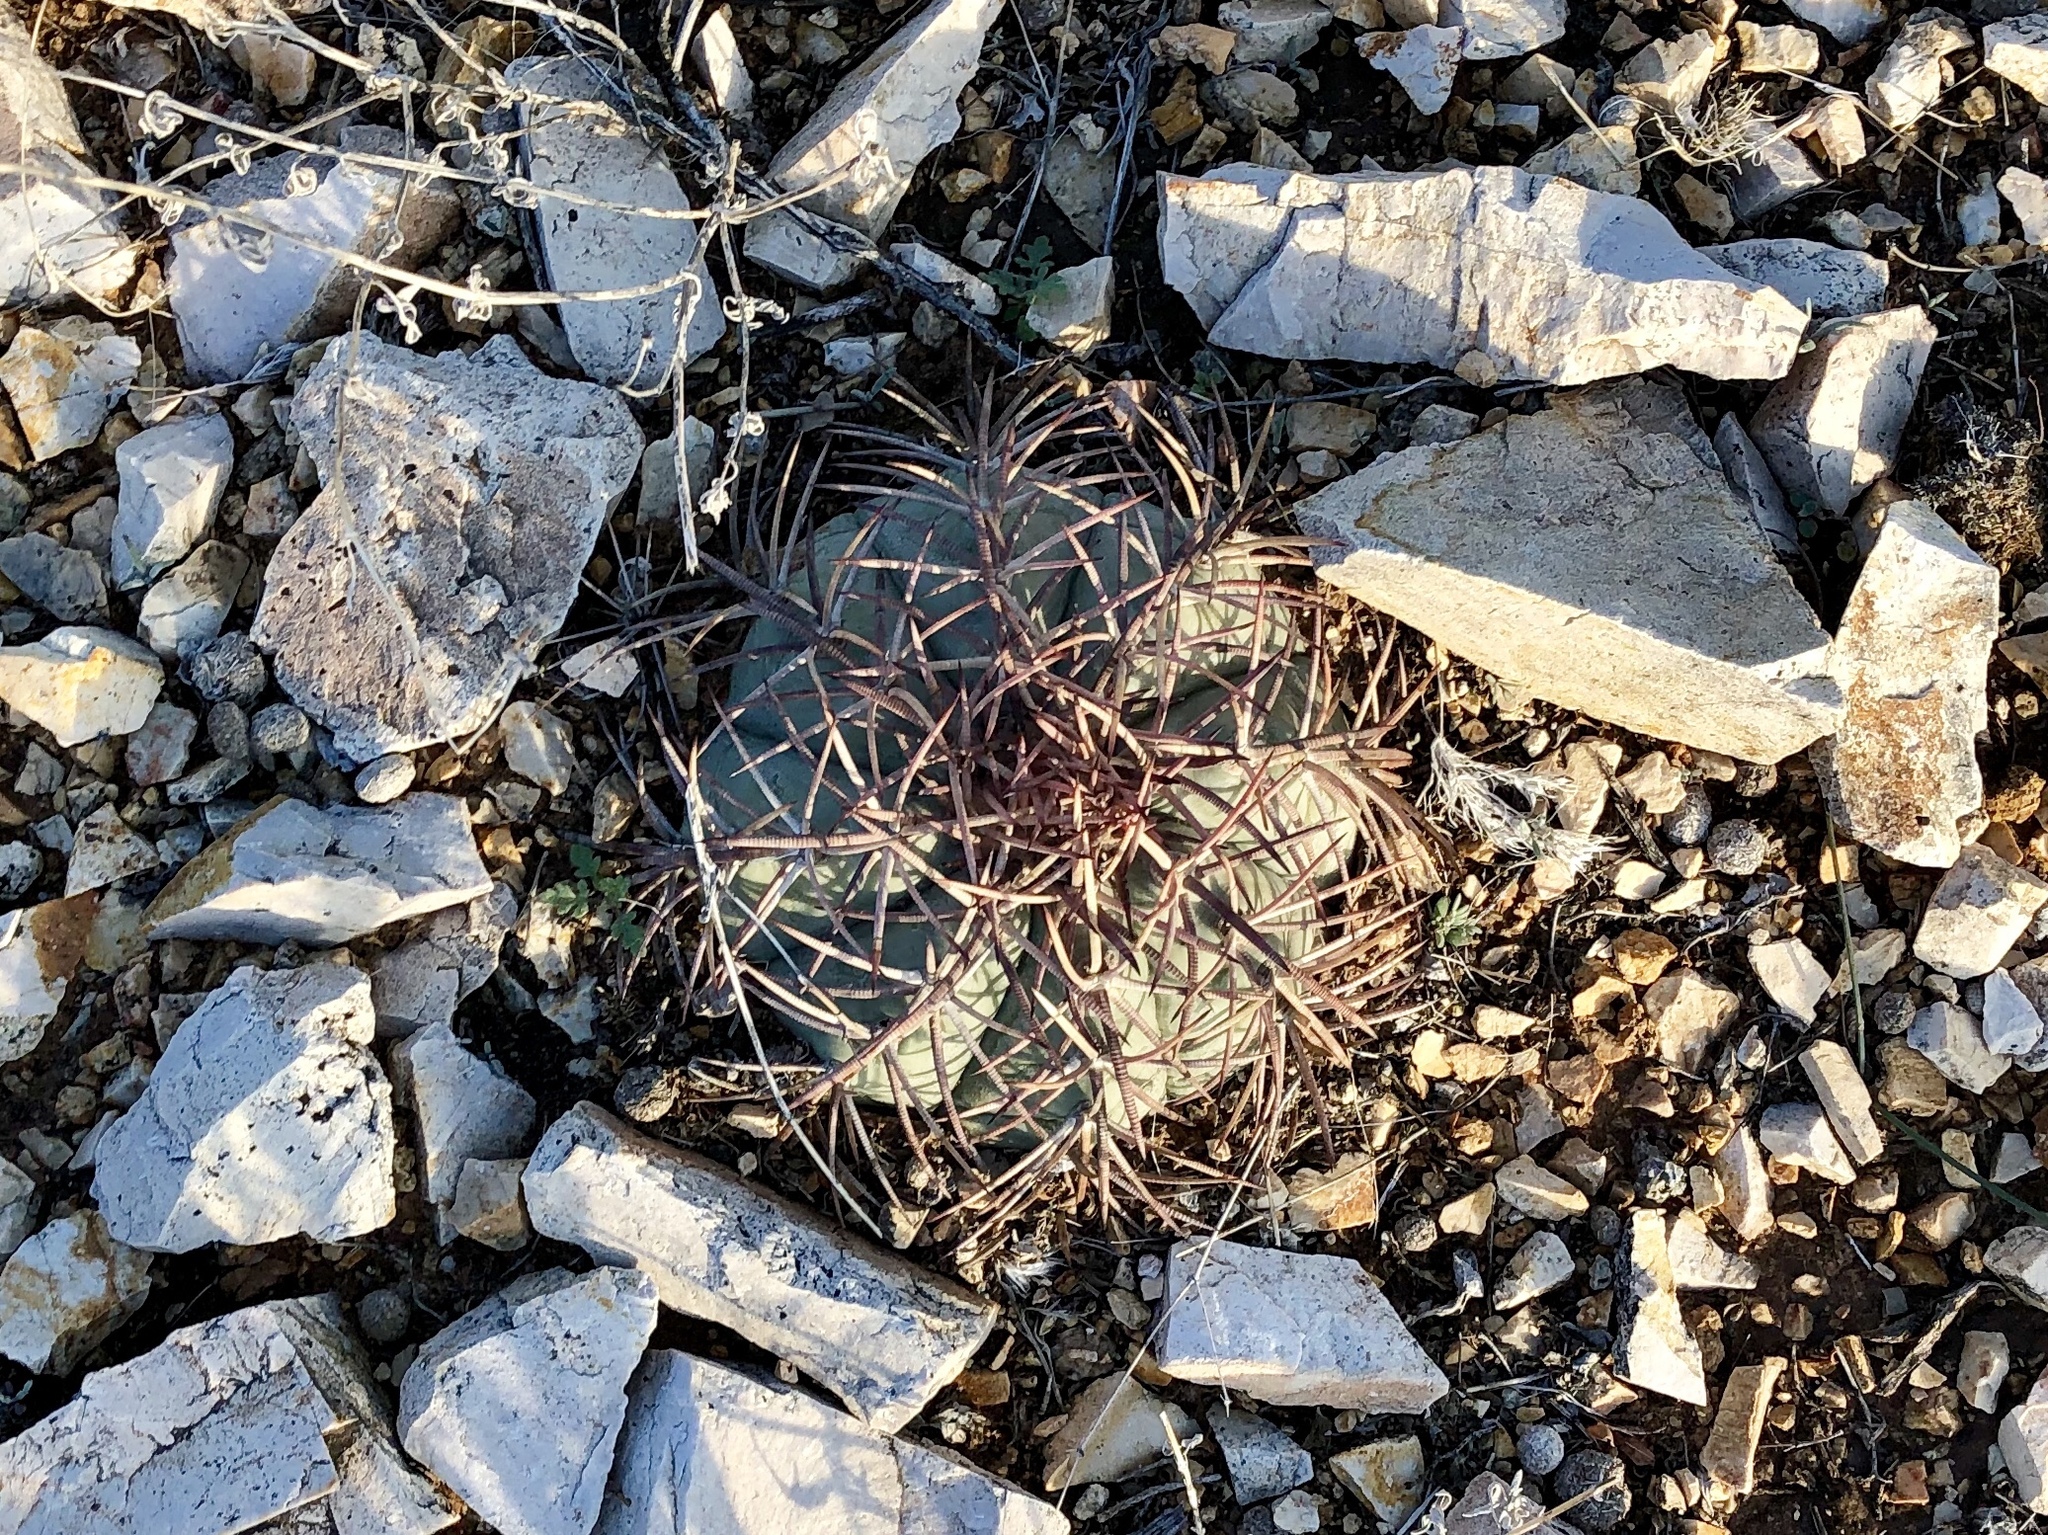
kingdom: Plantae
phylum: Tracheophyta
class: Magnoliopsida
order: Caryophyllales
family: Cactaceae
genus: Echinocactus
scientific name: Echinocactus horizonthalonius
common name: Devilshead
